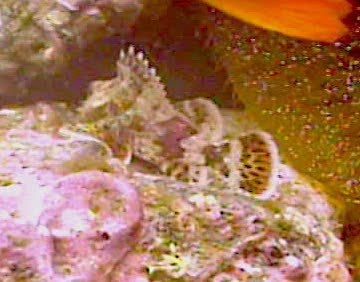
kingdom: Animalia
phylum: Chordata
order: Scorpaeniformes
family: Scorpaenidae
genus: Scorpaena
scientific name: Scorpaena guttata
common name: California scorpionfish
